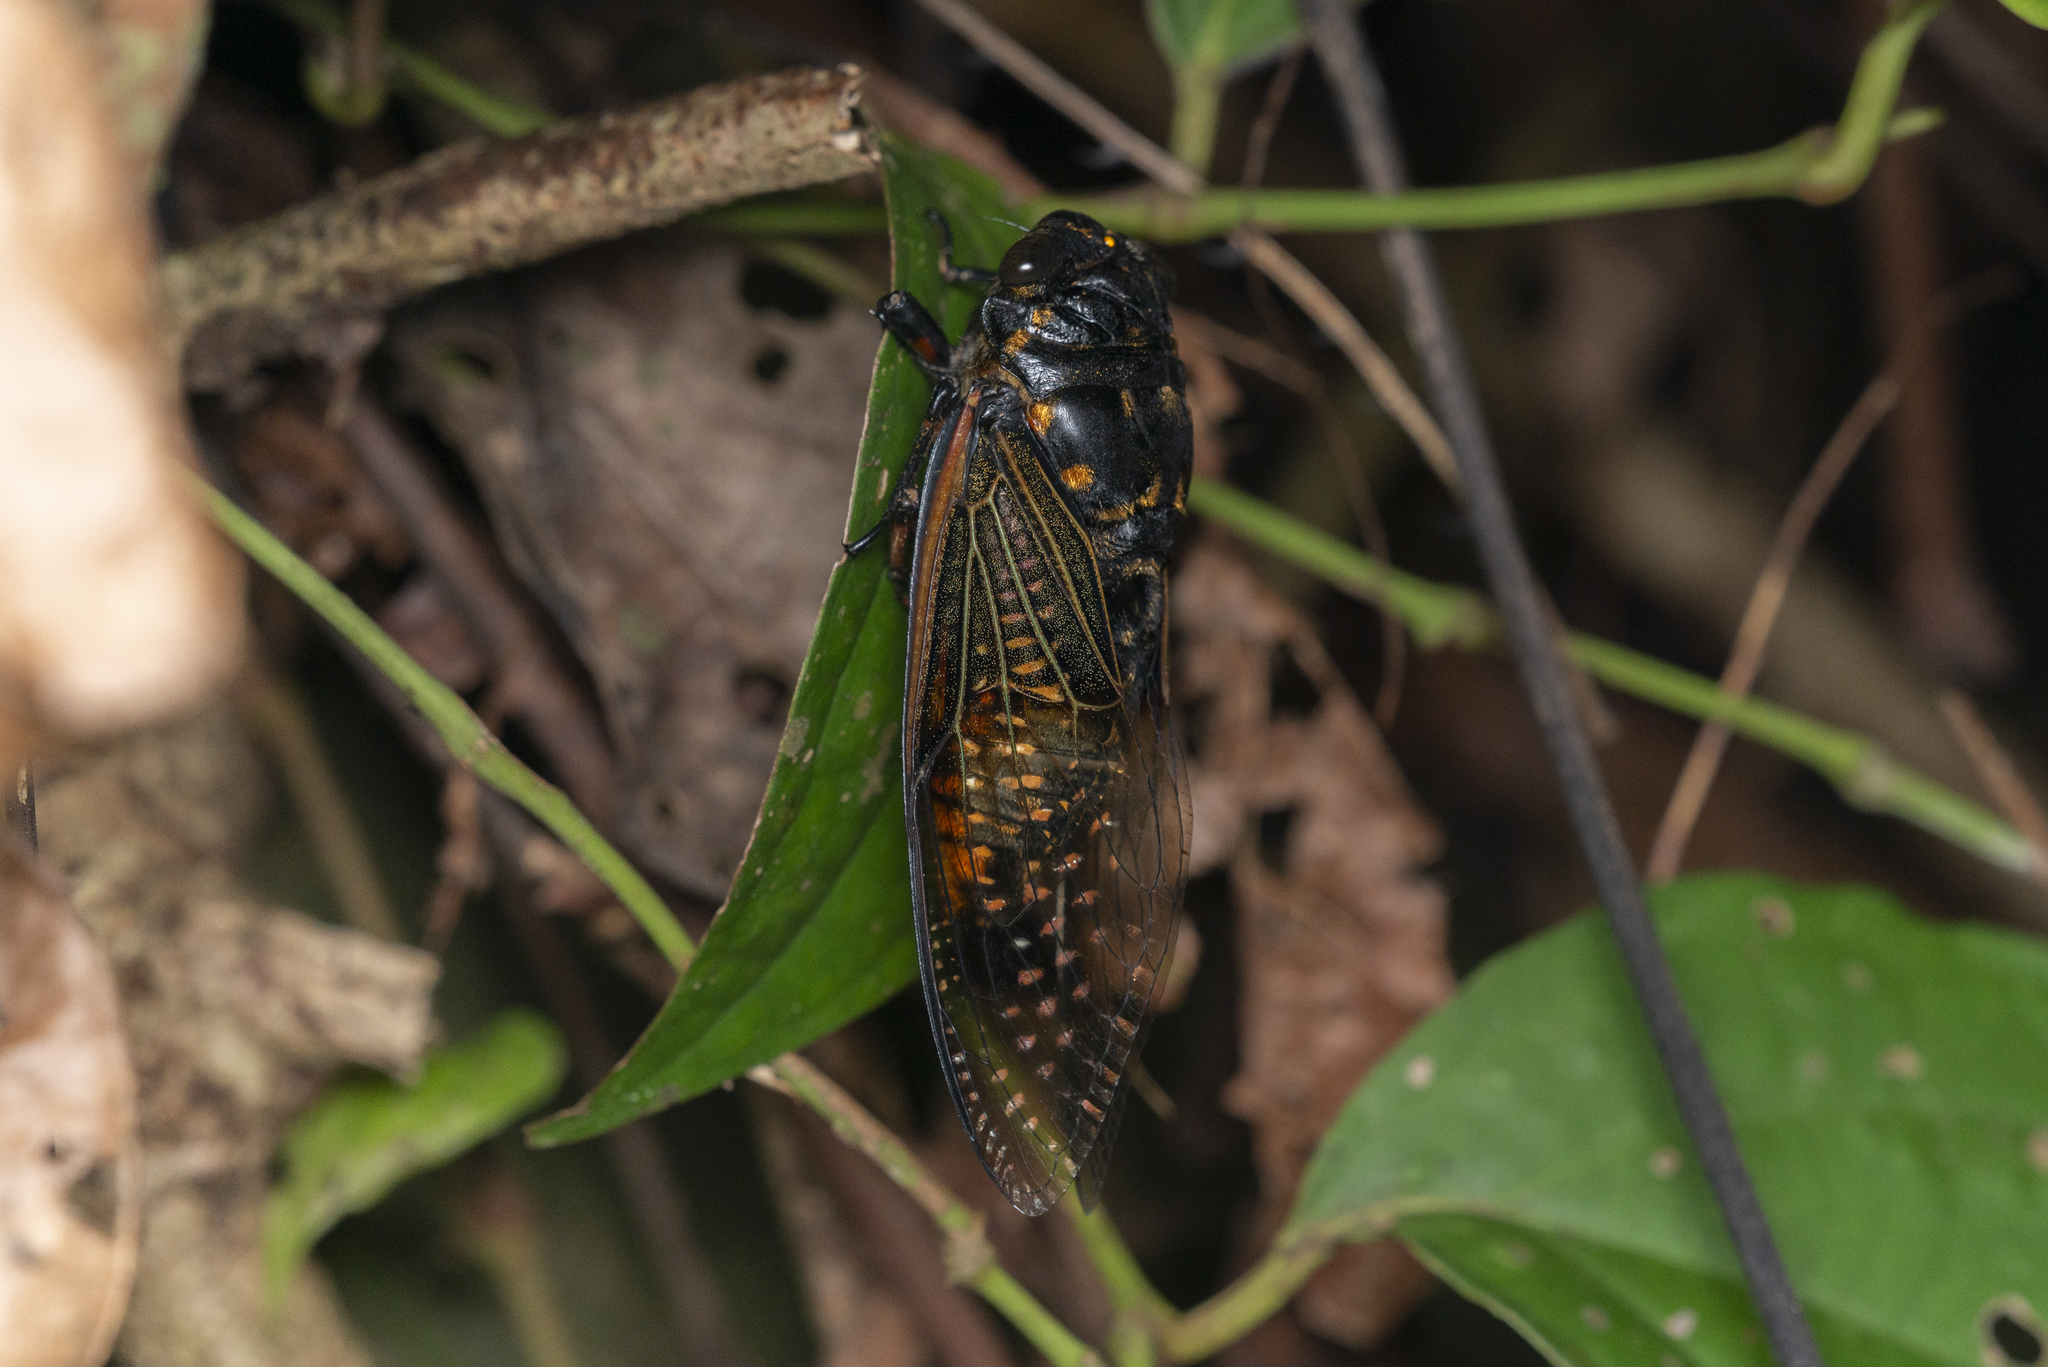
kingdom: Animalia
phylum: Arthropoda
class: Insecta
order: Hemiptera
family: Cicadidae
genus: Cryptotympana
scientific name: Cryptotympana mandarina
